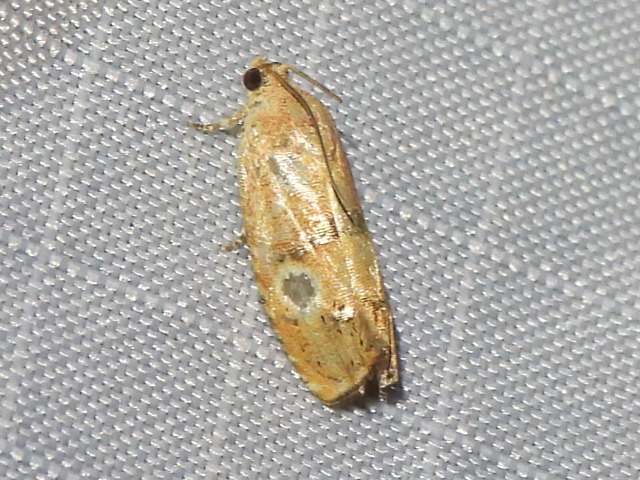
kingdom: Animalia
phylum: Arthropoda
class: Insecta
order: Lepidoptera
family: Tortricidae
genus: Cydia
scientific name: Cydia latiferreana
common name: Filbertworm moth
